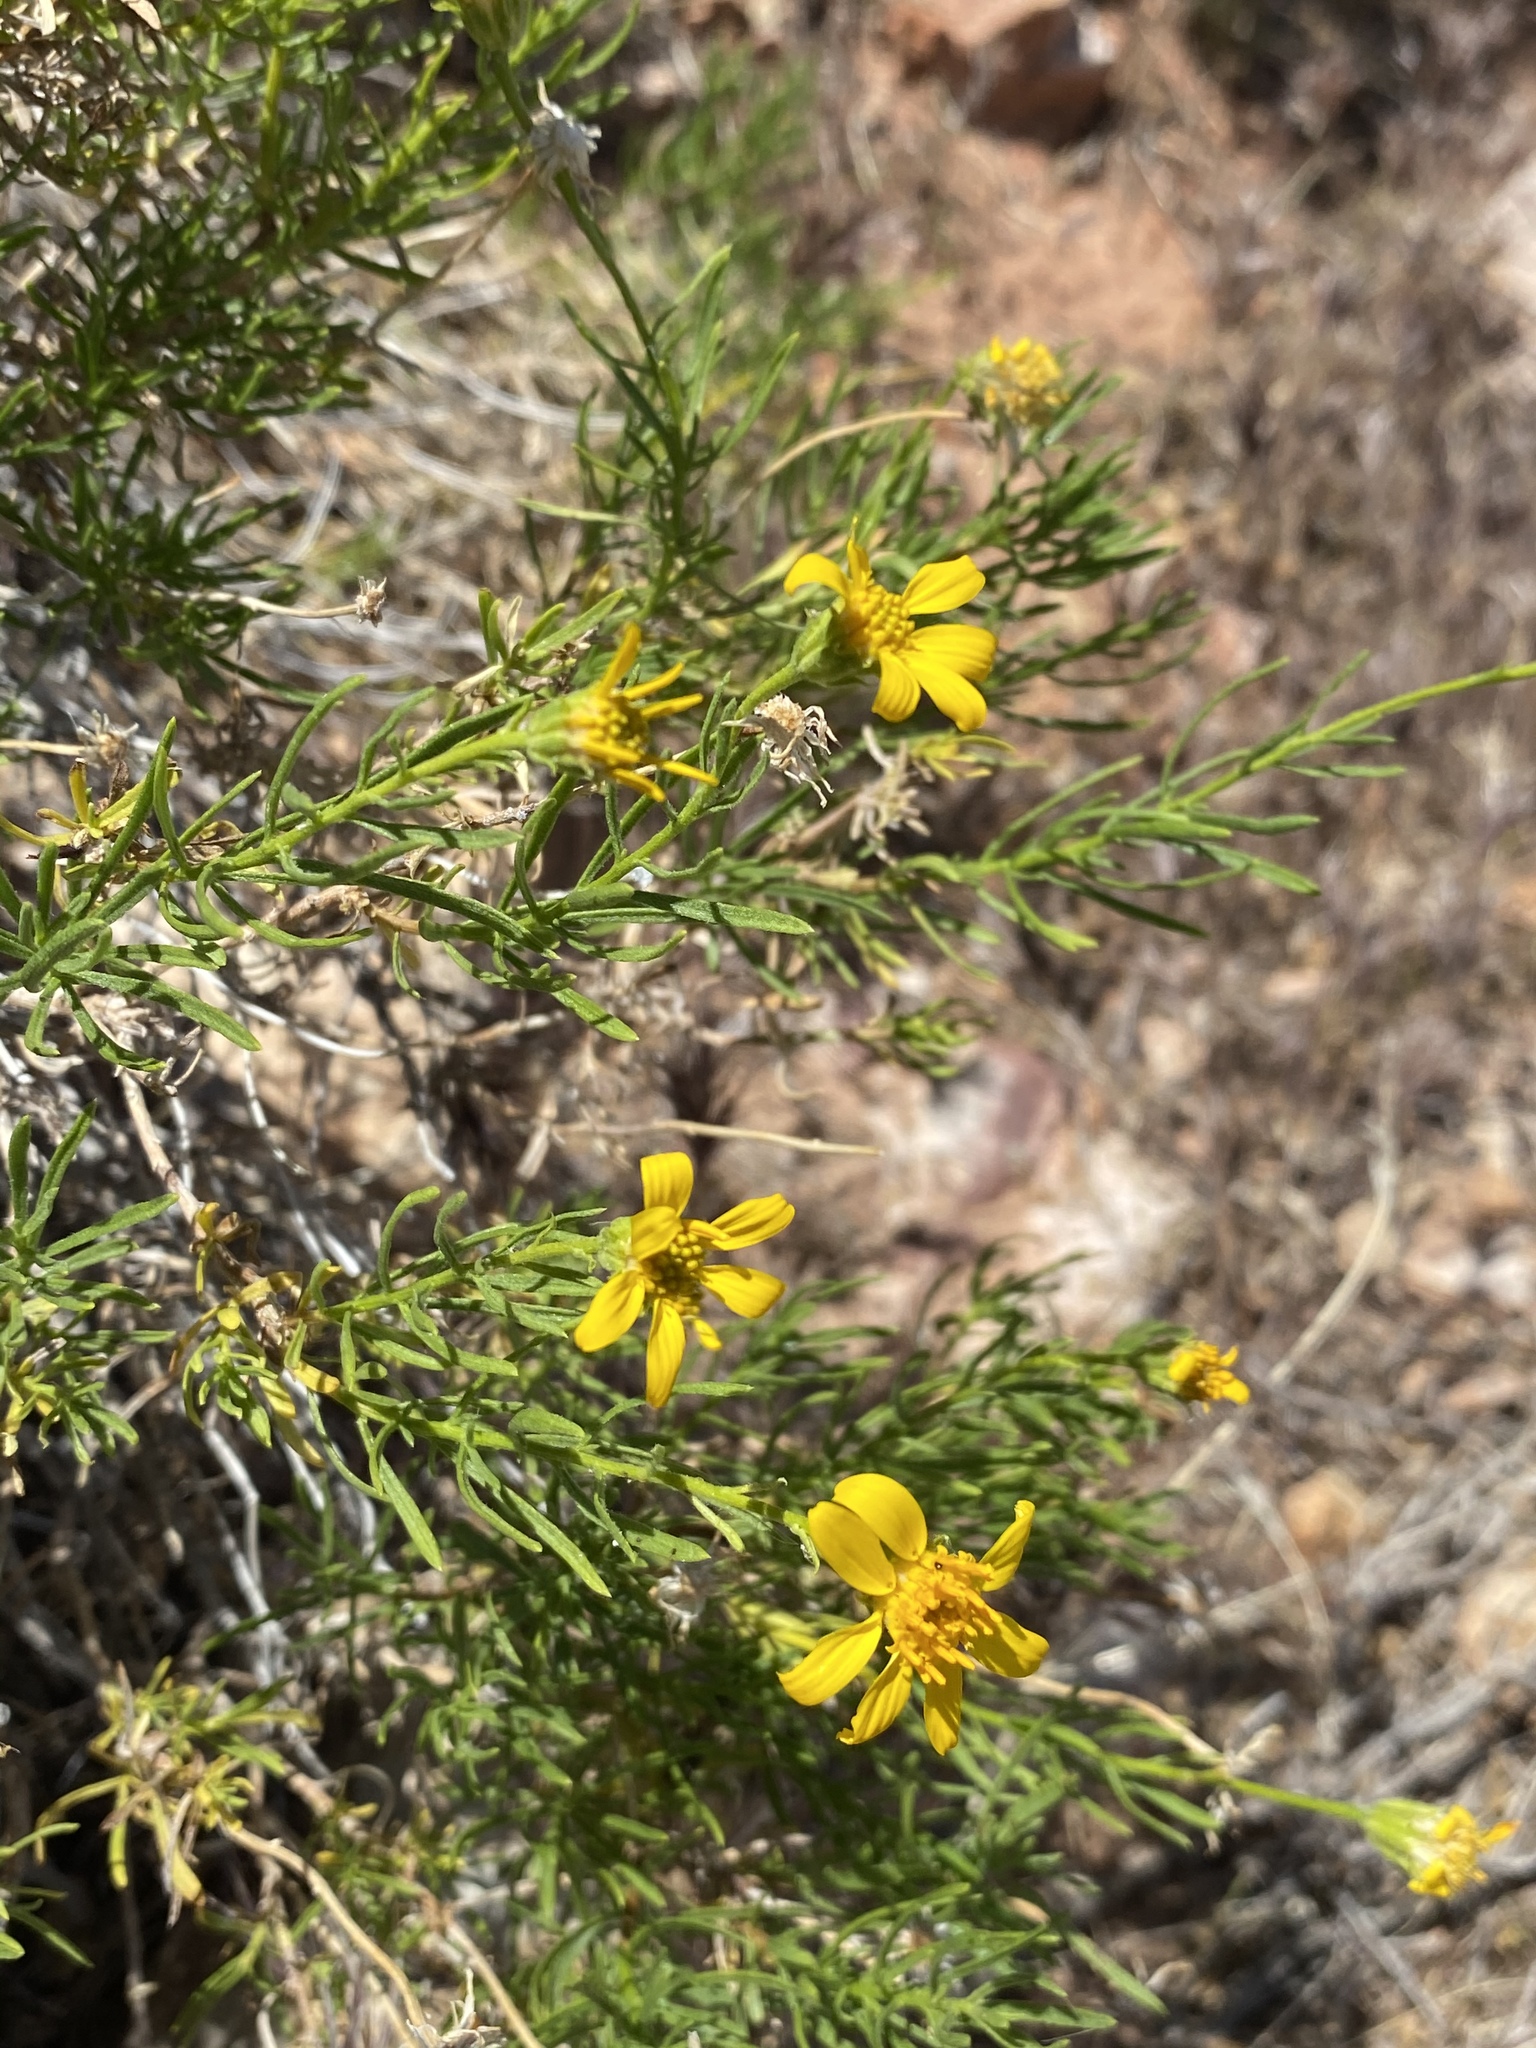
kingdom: Plantae
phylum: Tracheophyta
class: Magnoliopsida
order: Asterales
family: Asteraceae
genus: Ericameria
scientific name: Ericameria linearifolia
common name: Interior goldenbush
